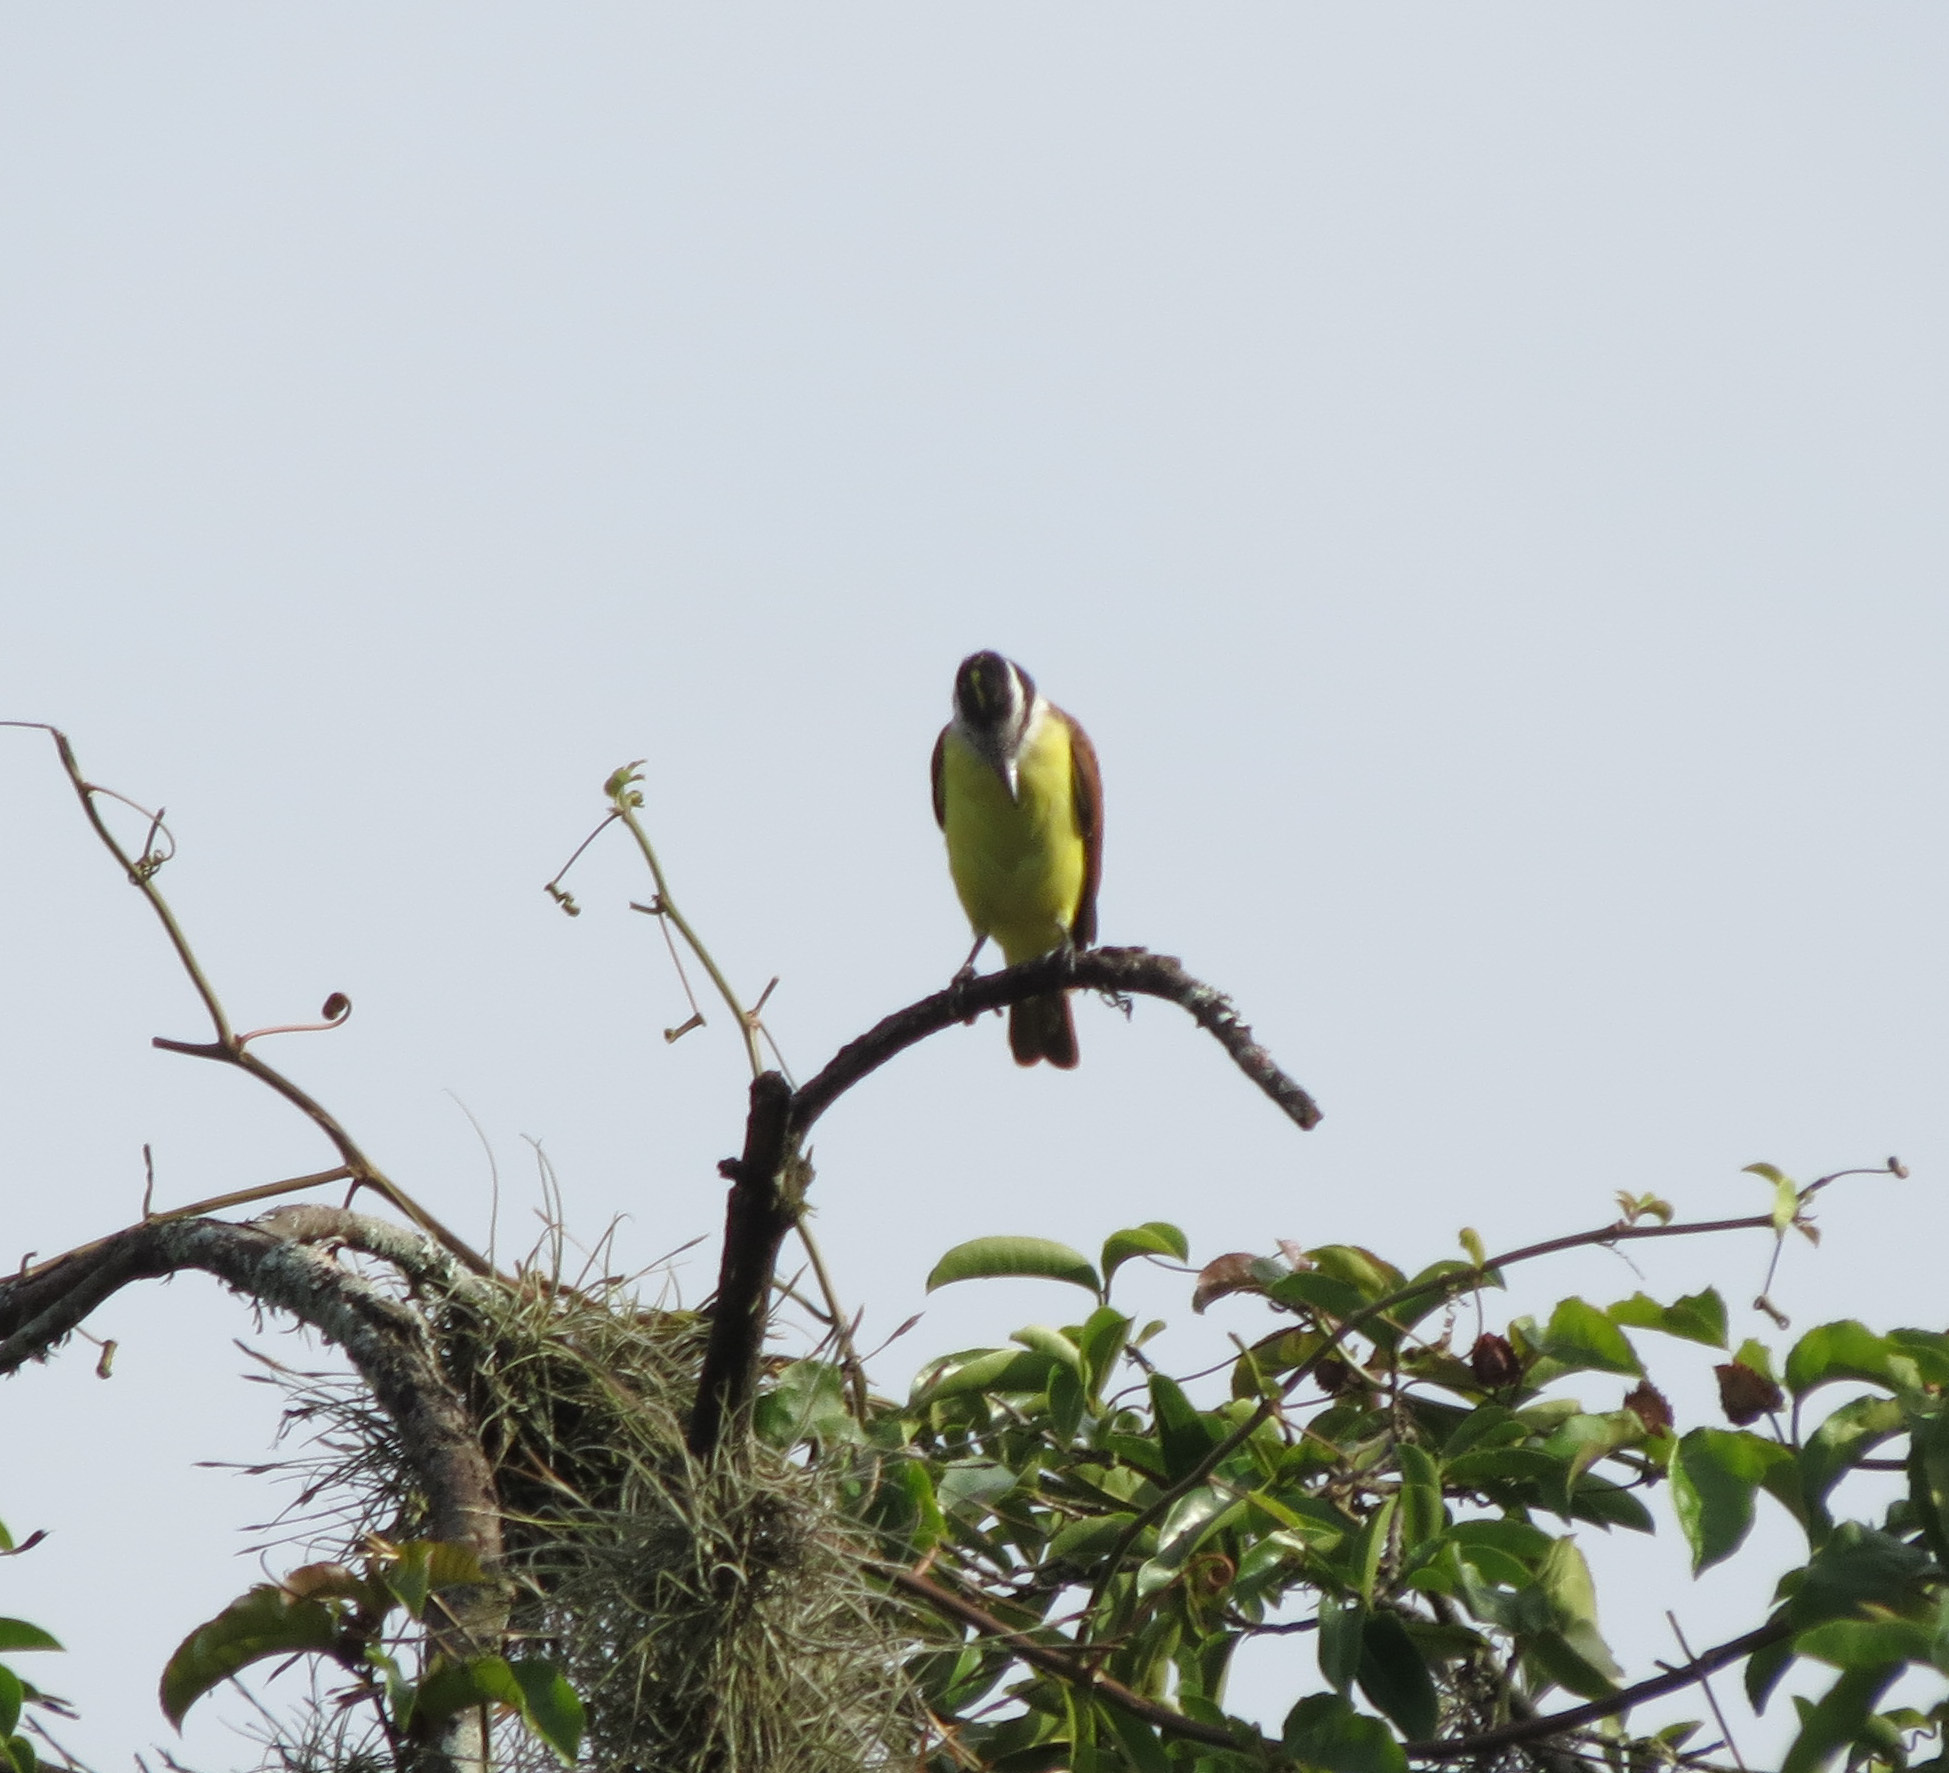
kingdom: Animalia
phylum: Chordata
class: Aves
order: Passeriformes
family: Tyrannidae
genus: Pitangus
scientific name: Pitangus sulphuratus
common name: Great kiskadee
